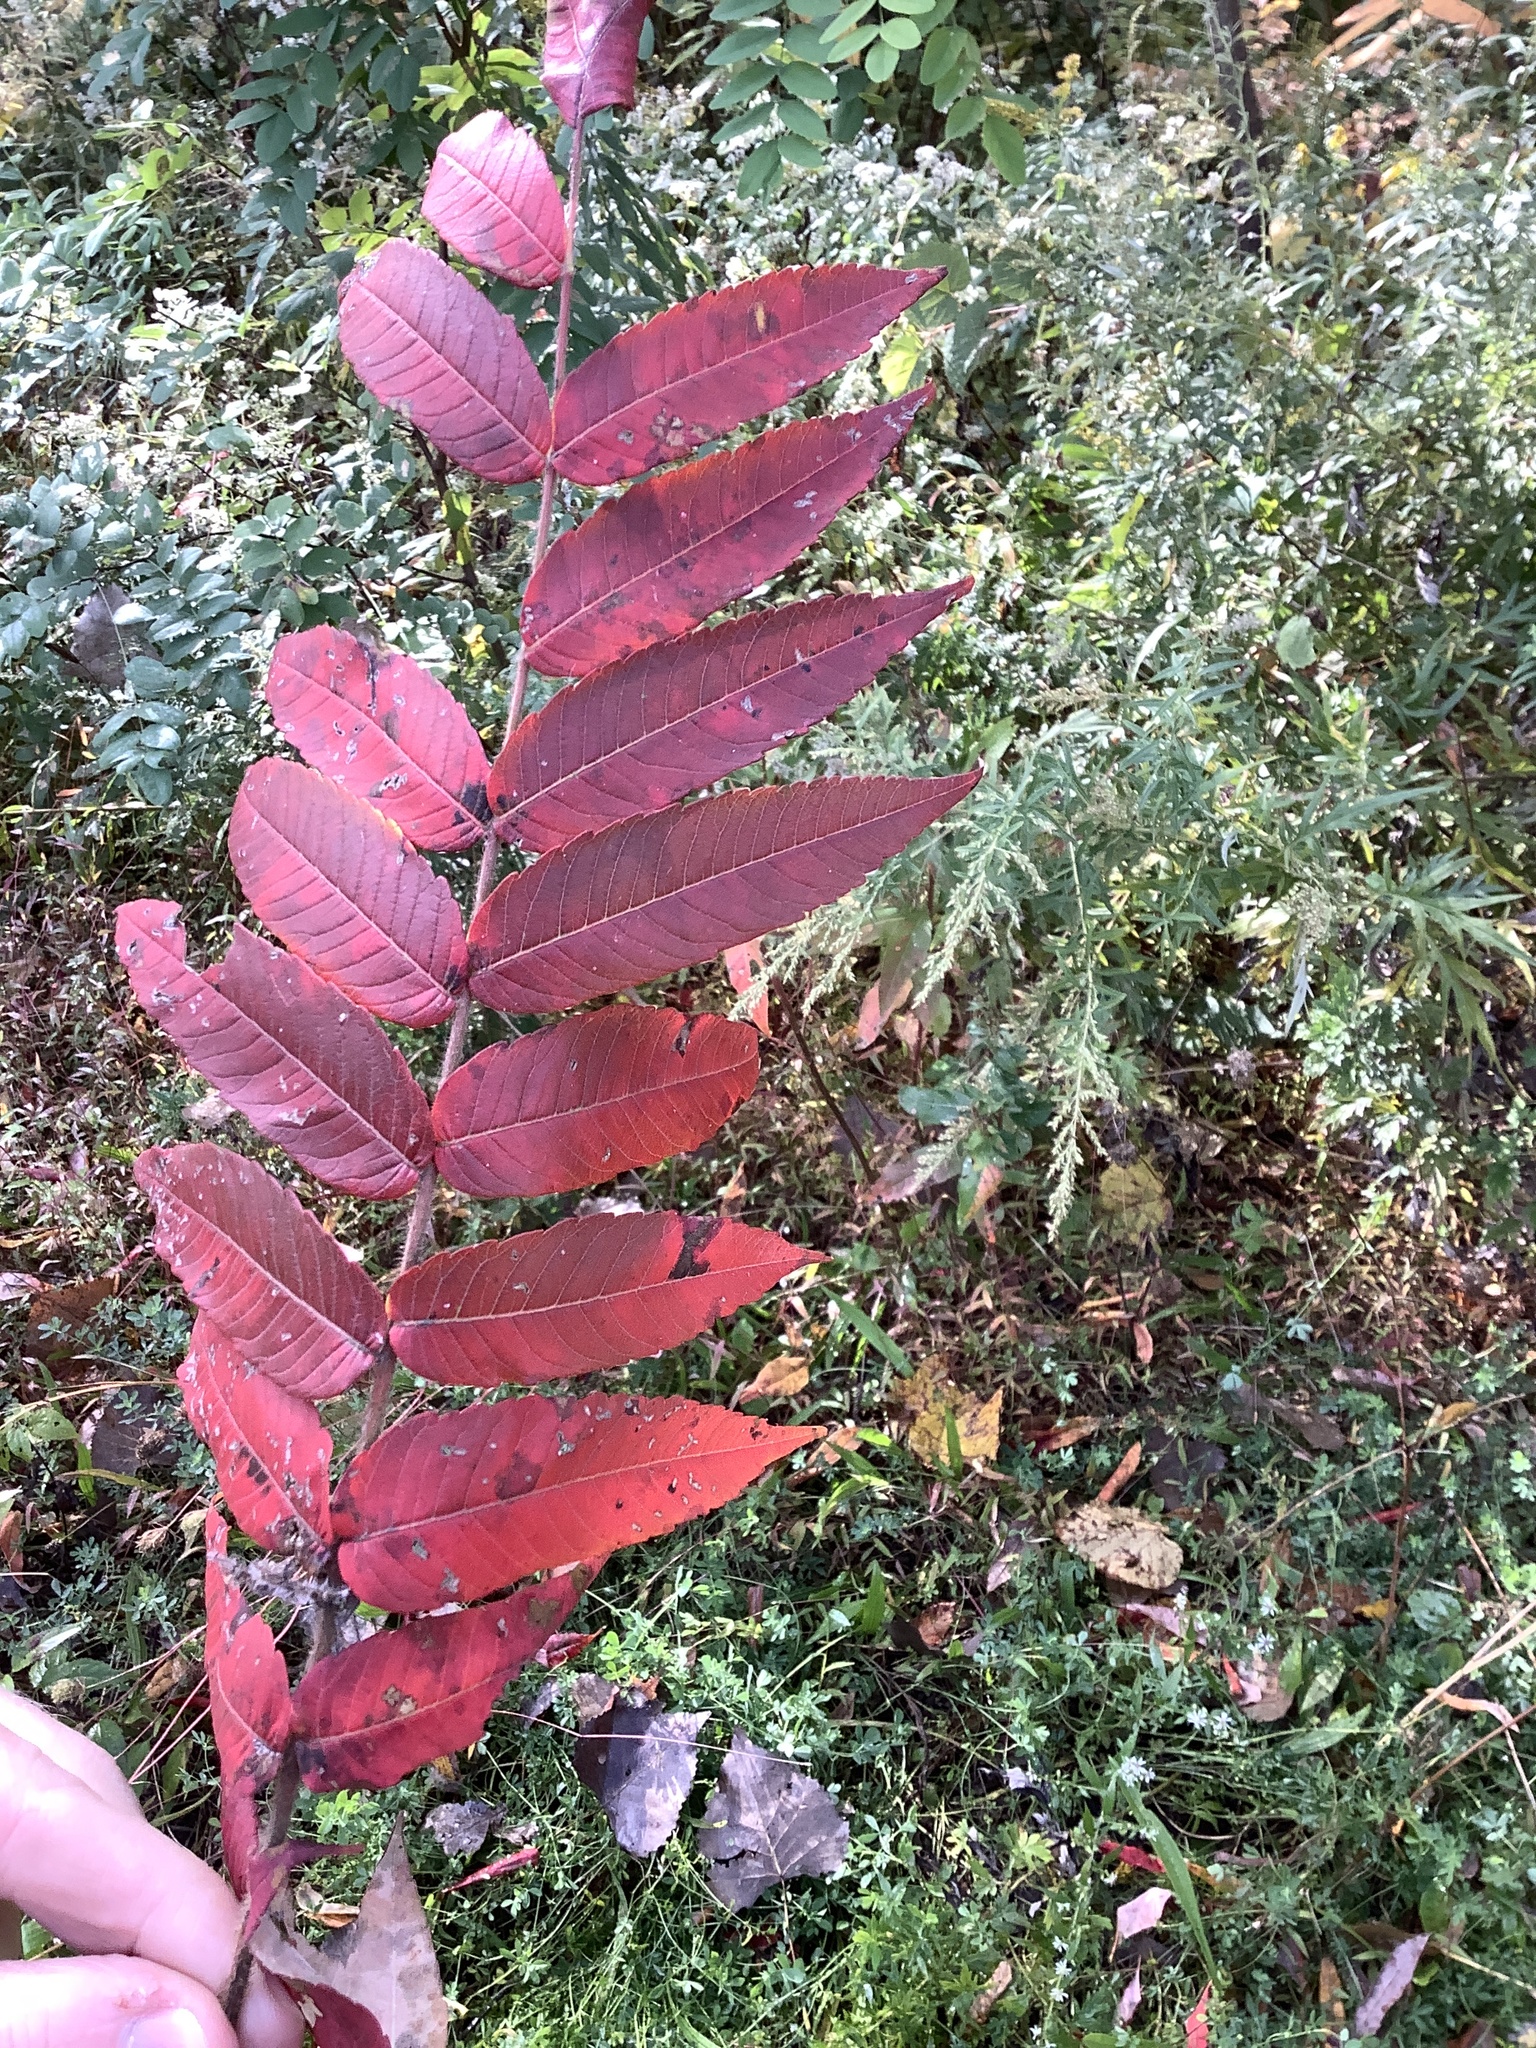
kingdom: Plantae
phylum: Tracheophyta
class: Magnoliopsida
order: Sapindales
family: Anacardiaceae
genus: Rhus
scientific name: Rhus typhina
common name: Staghorn sumac
